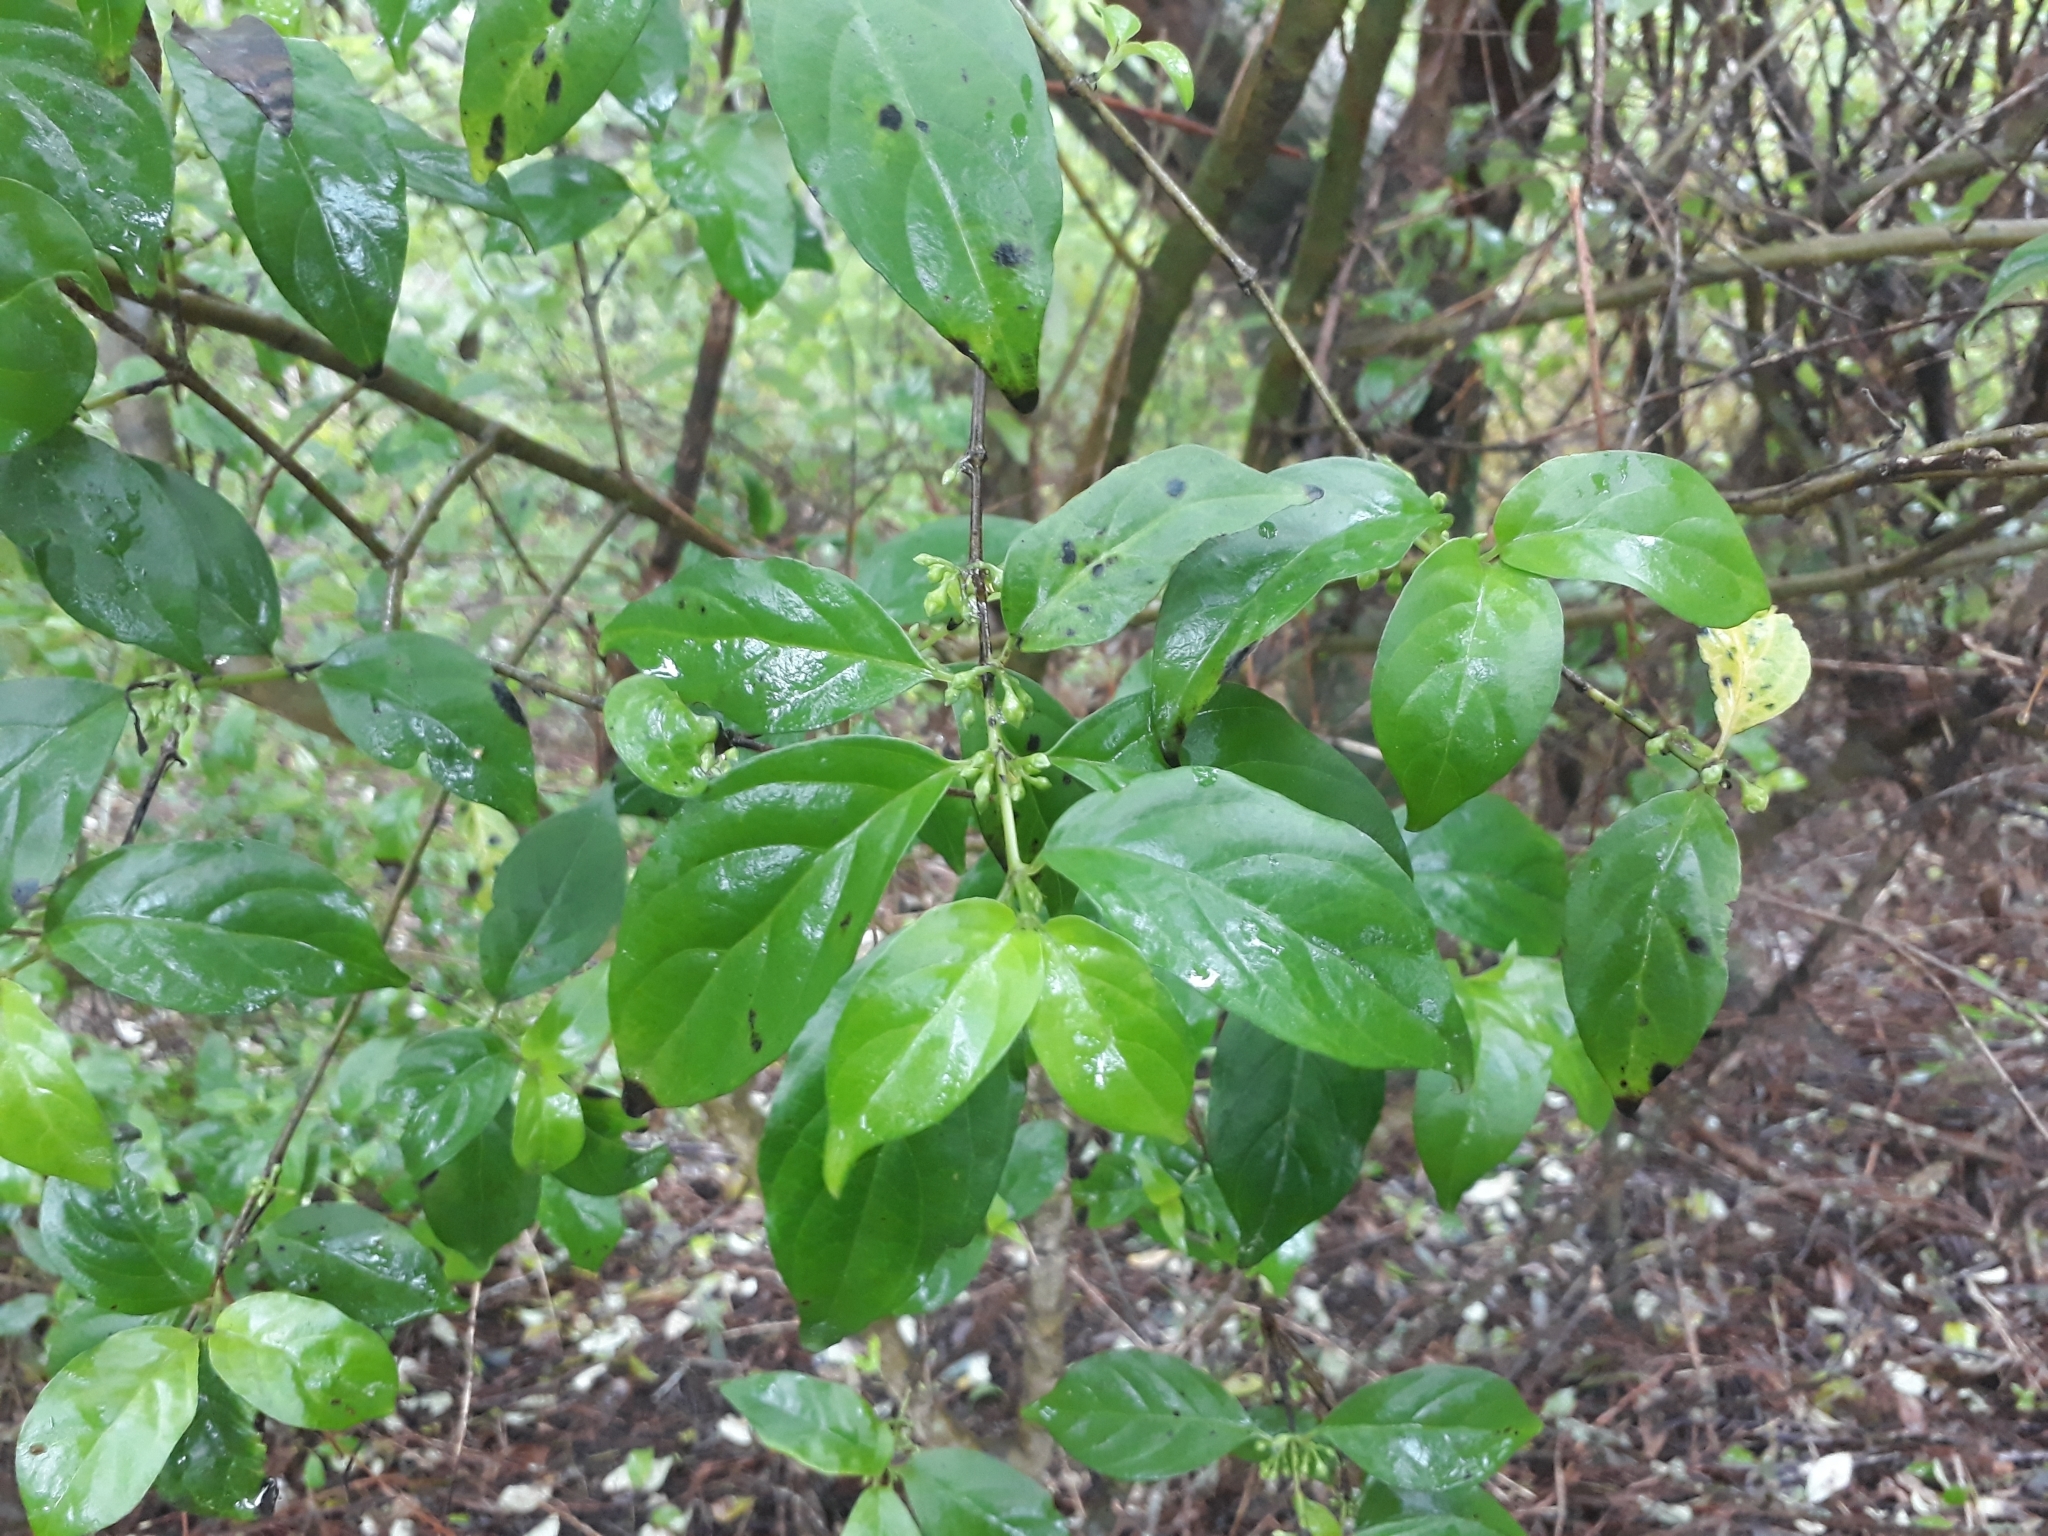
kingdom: Plantae
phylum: Tracheophyta
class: Magnoliopsida
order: Gentianales
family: Loganiaceae
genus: Geniostoma
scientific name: Geniostoma ligustrifolium
